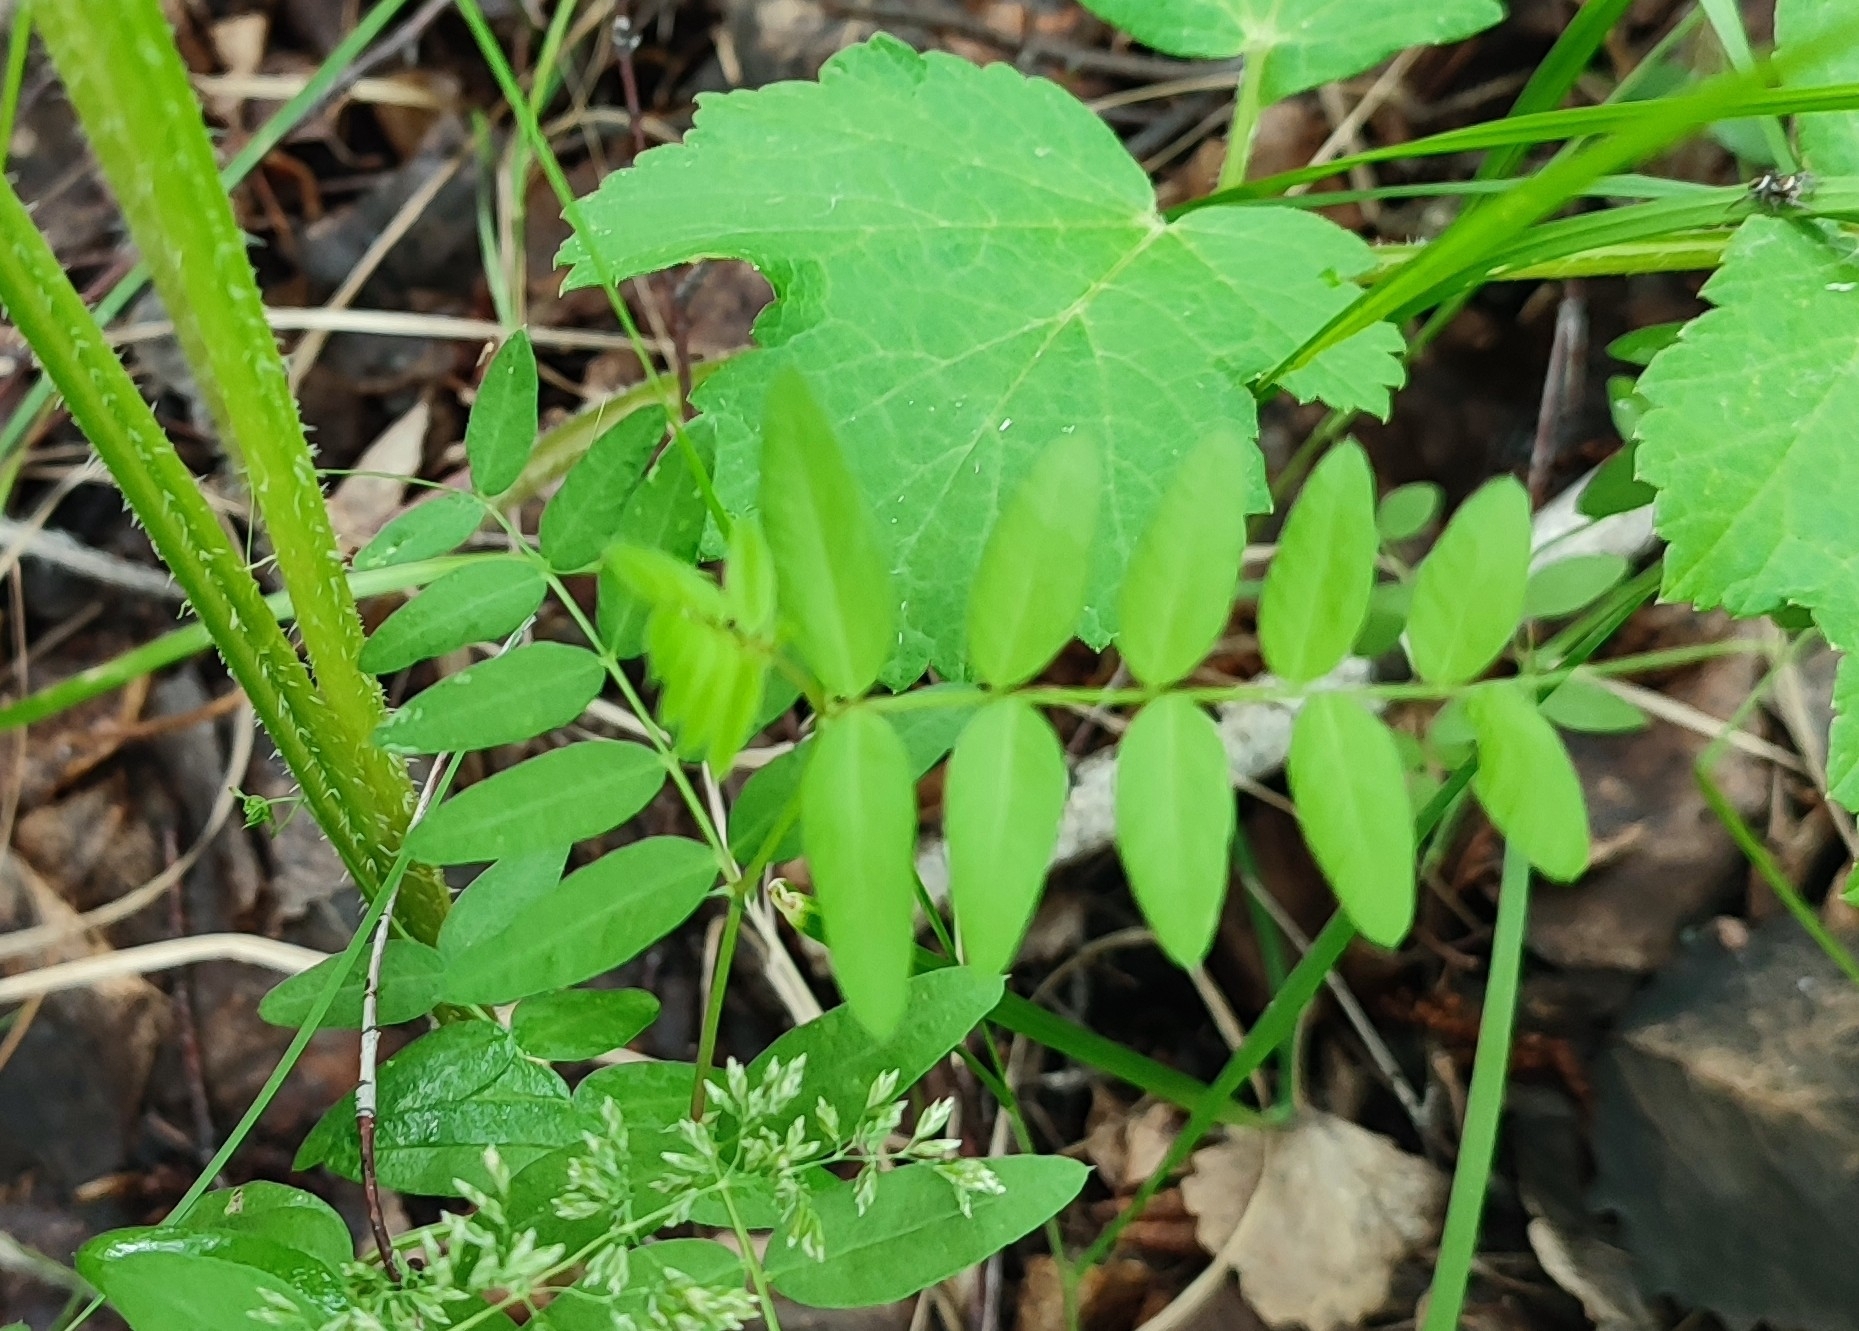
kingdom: Plantae
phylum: Tracheophyta
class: Magnoliopsida
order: Fabales
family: Fabaceae
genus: Vicia
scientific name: Vicia sepium
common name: Bush vetch
